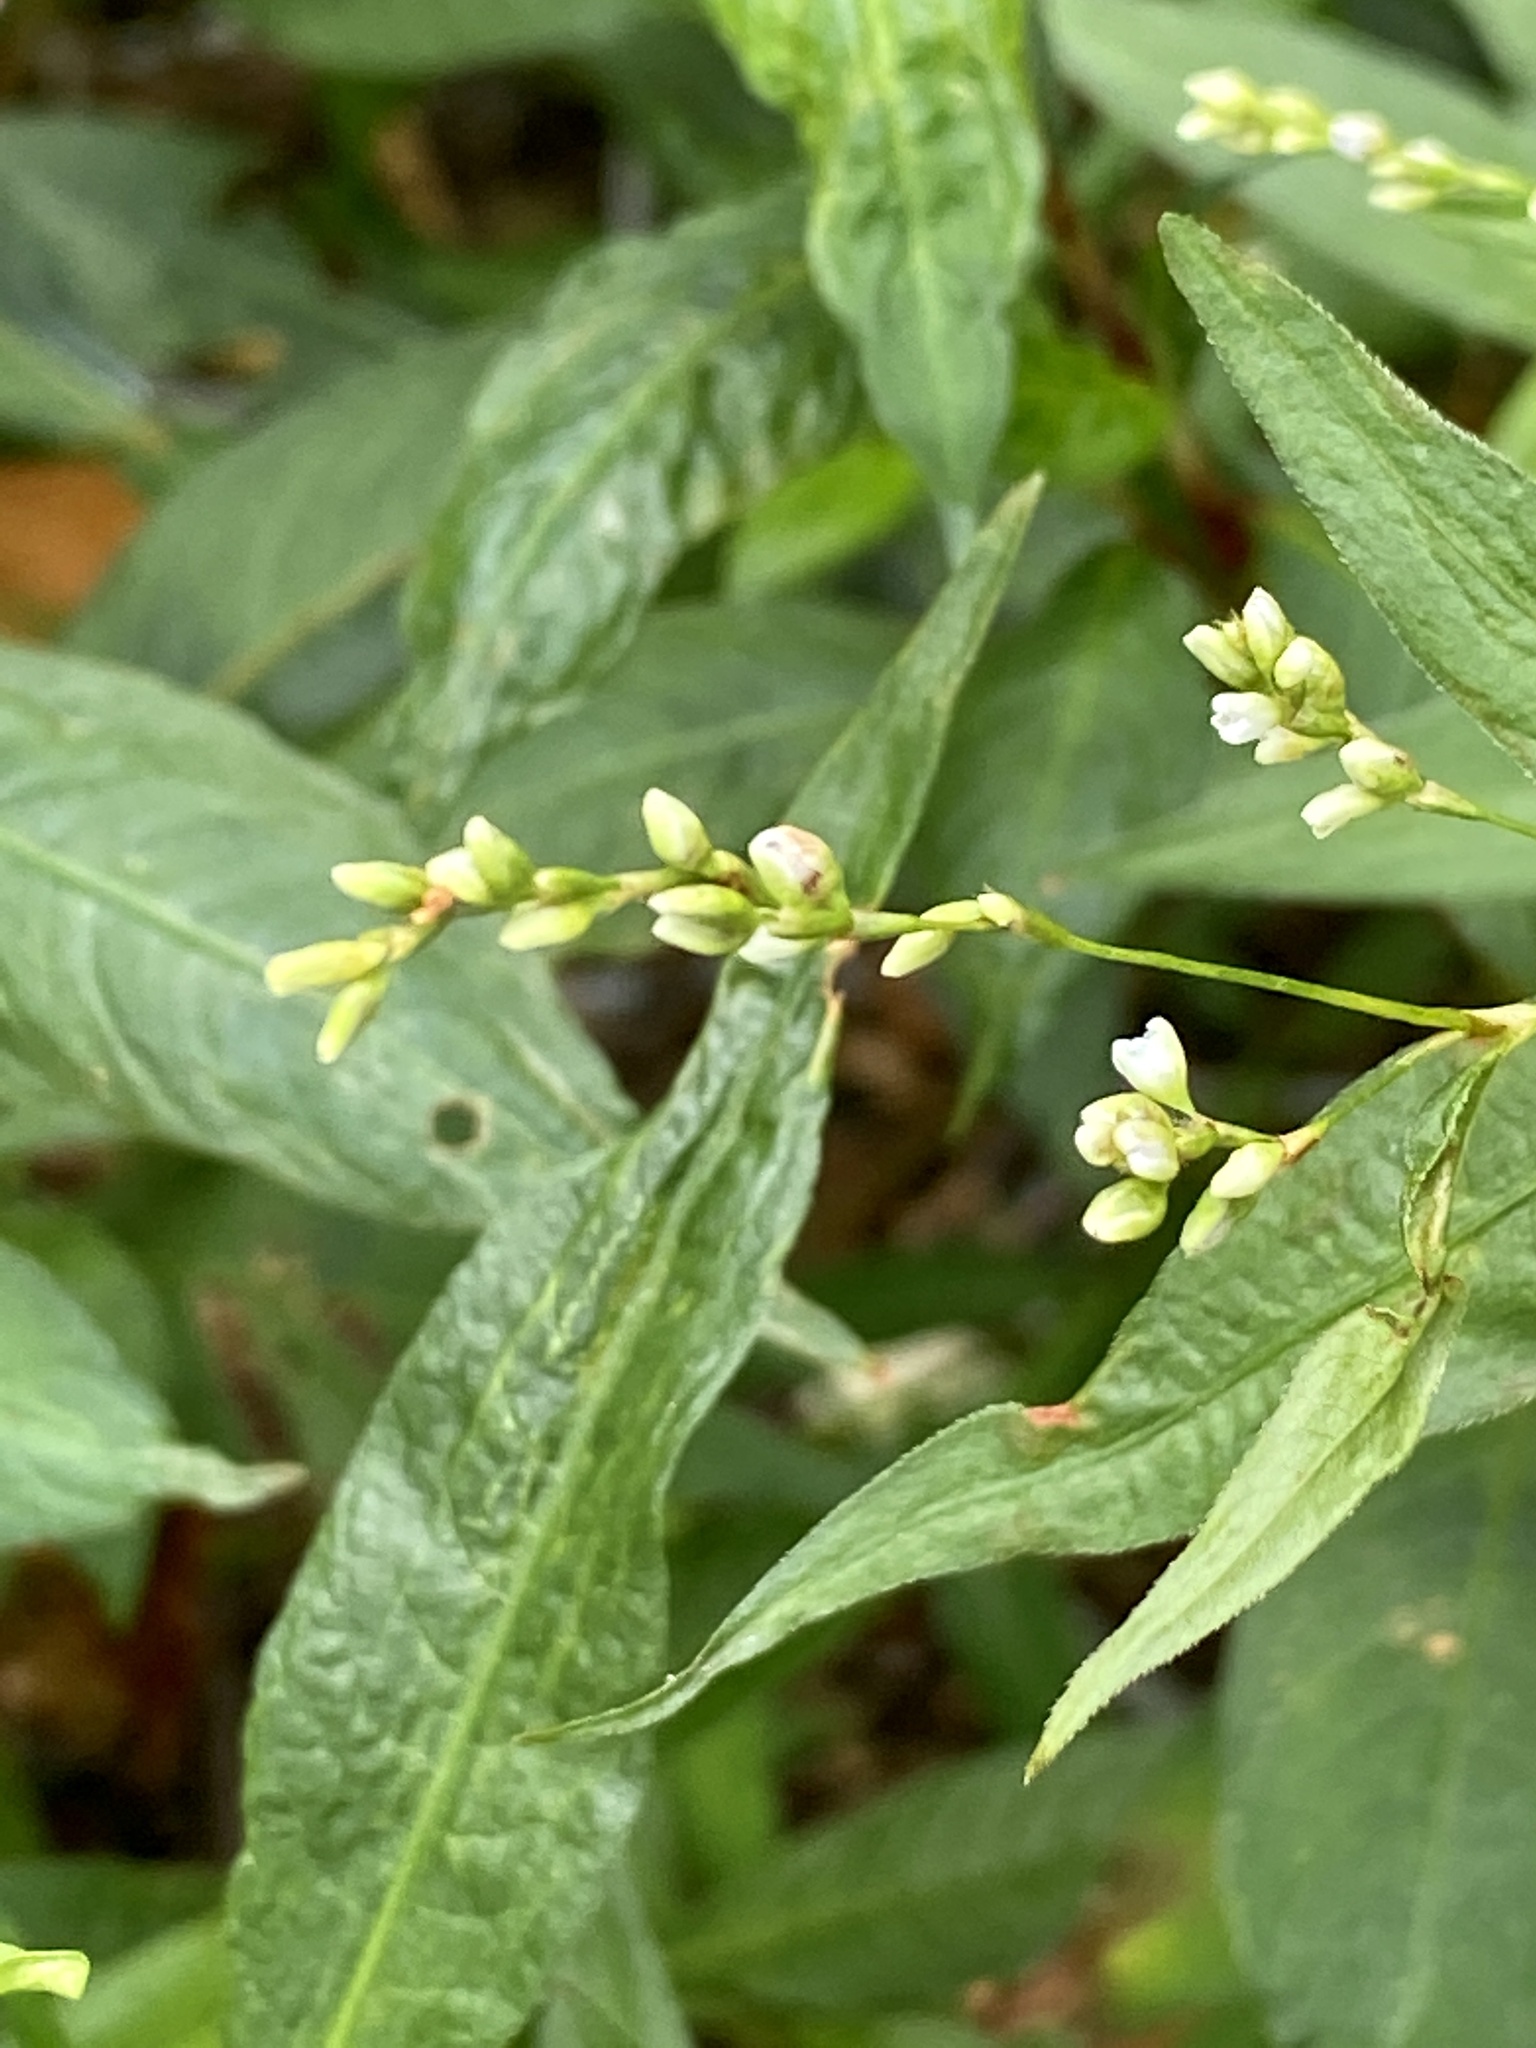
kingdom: Plantae
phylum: Tracheophyta
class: Magnoliopsida
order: Caryophyllales
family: Polygonaceae
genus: Persicaria
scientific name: Persicaria punctata
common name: Dotted smartweed
